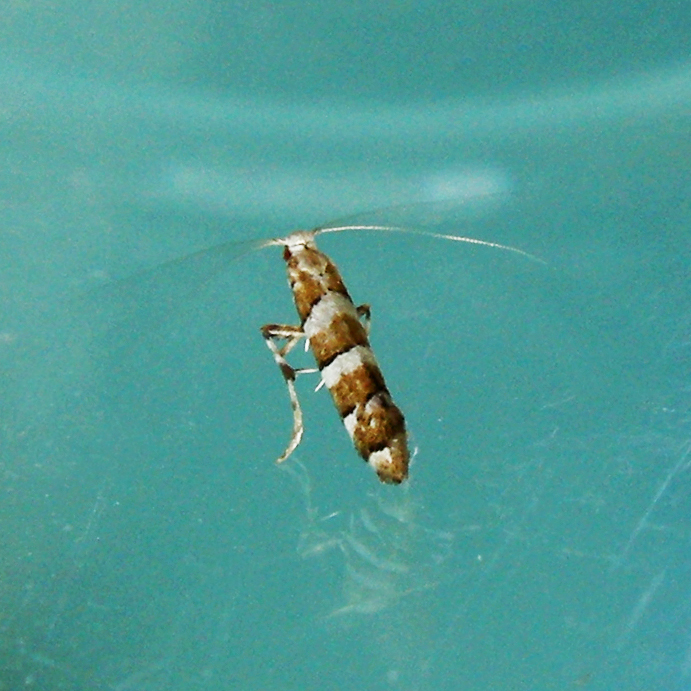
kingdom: Animalia
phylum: Arthropoda
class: Insecta
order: Lepidoptera
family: Gracillariidae
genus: Marmara
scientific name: Marmara fasciella
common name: White pine barkminer moth
